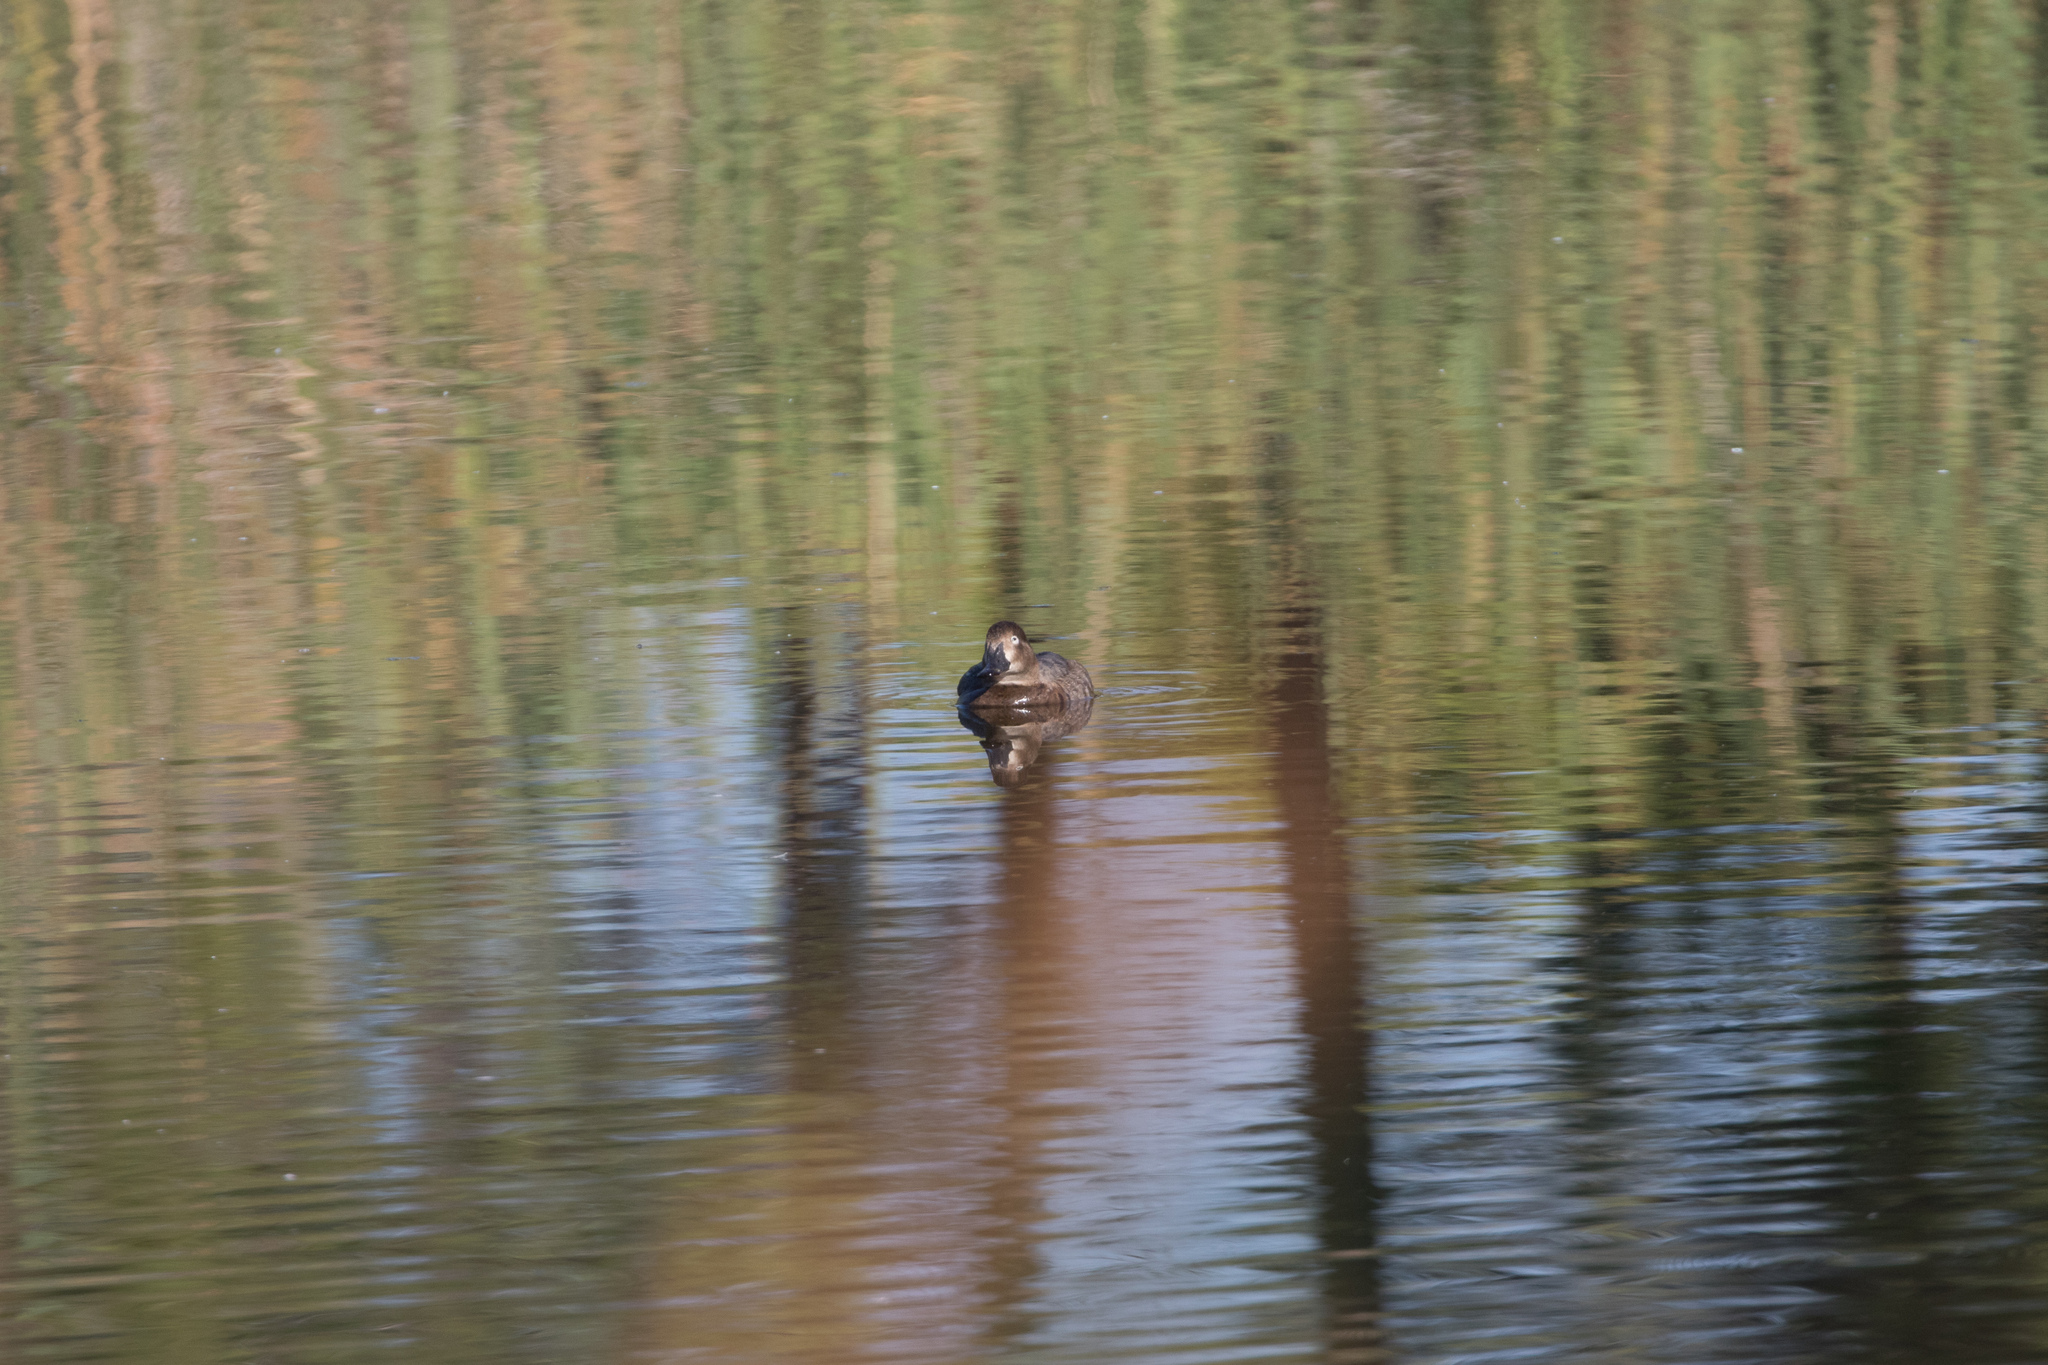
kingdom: Animalia
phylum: Chordata
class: Aves
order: Anseriformes
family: Anatidae
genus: Aythya
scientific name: Aythya ferina
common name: Common pochard
